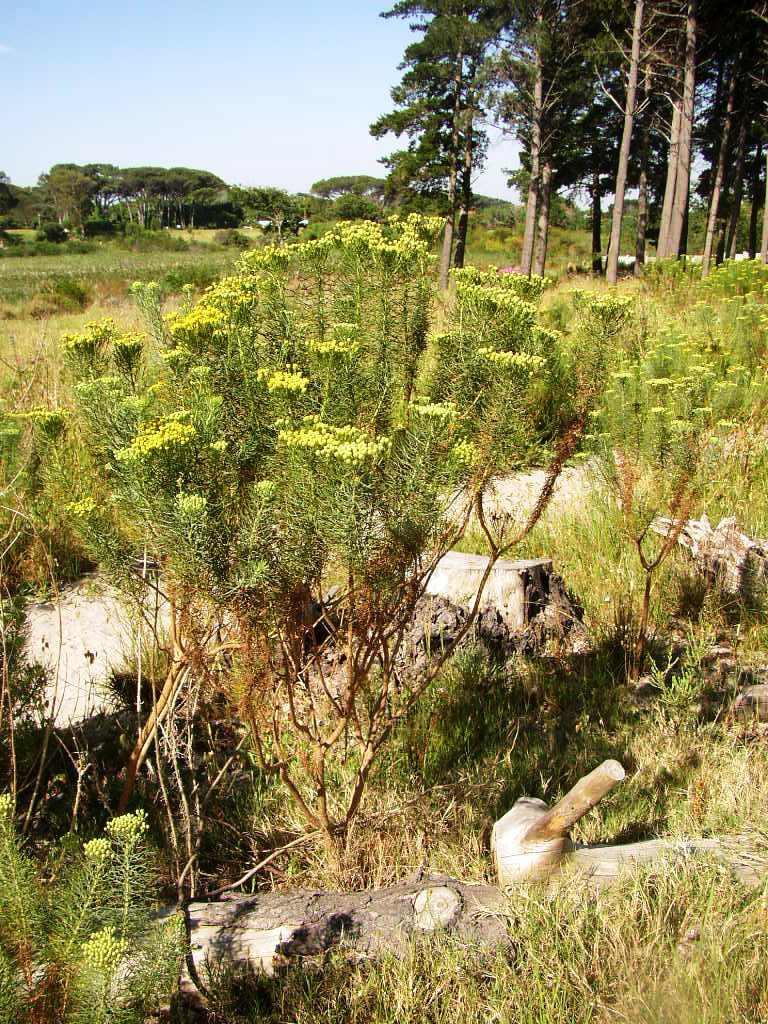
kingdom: Plantae
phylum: Tracheophyta
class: Magnoliopsida
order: Asterales
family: Asteraceae
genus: Hymenolepis
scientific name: Hymenolepis crithmifolia
